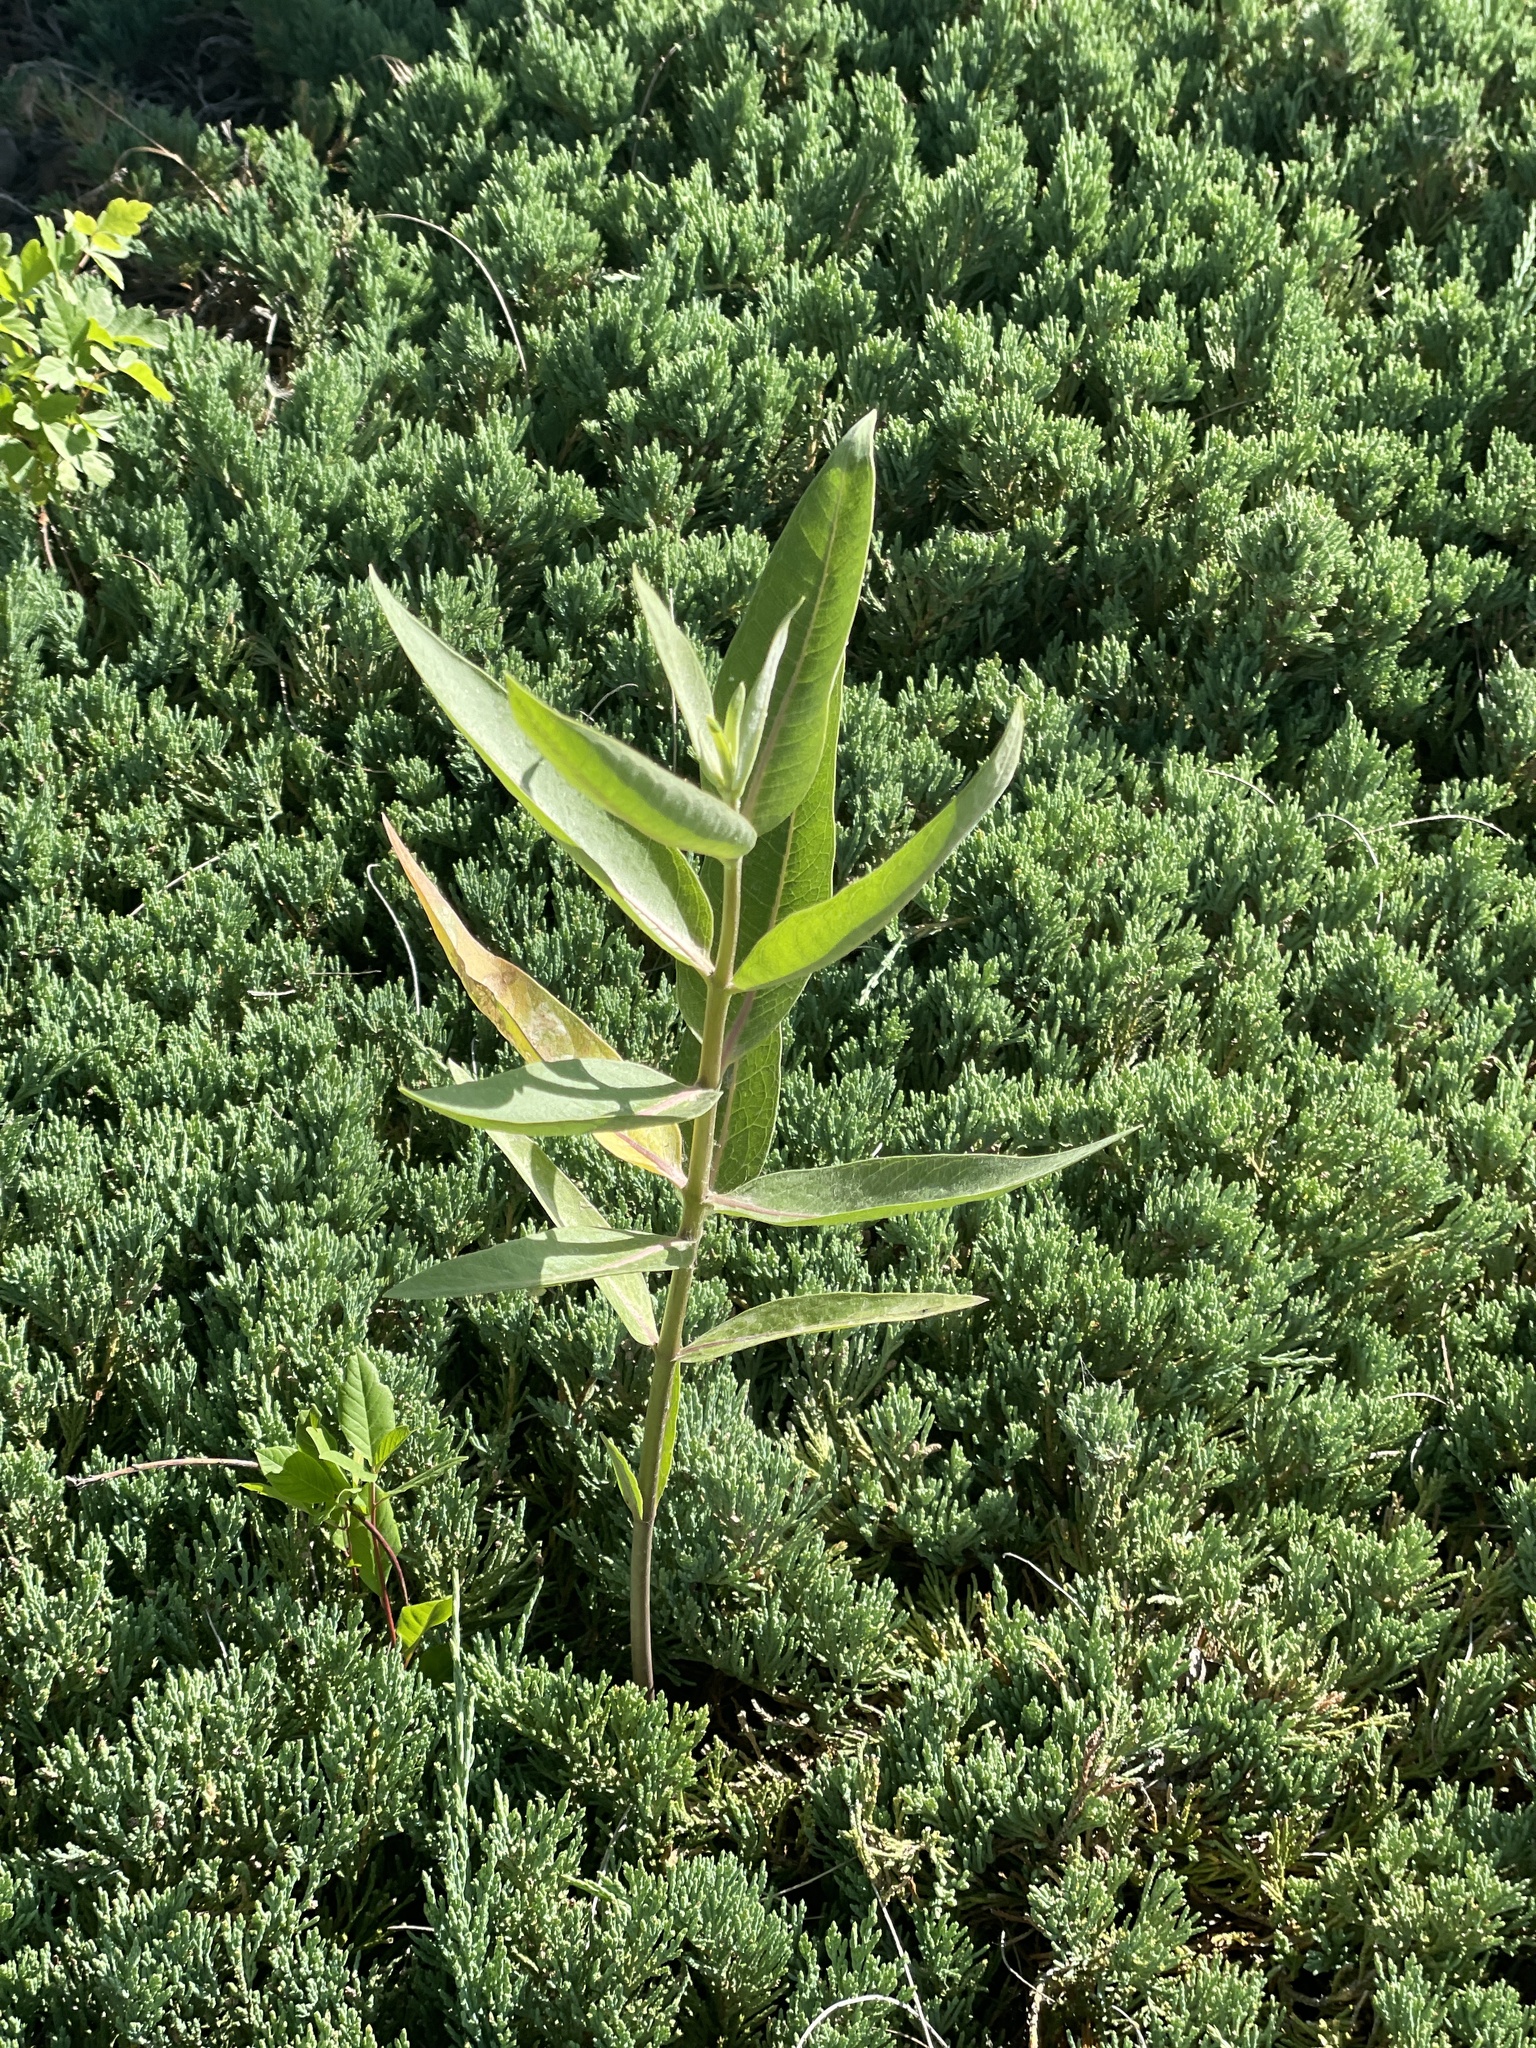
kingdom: Plantae
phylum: Tracheophyta
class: Magnoliopsida
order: Gentianales
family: Apocynaceae
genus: Asclepias
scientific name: Asclepias speciosa
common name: Showy milkweed
